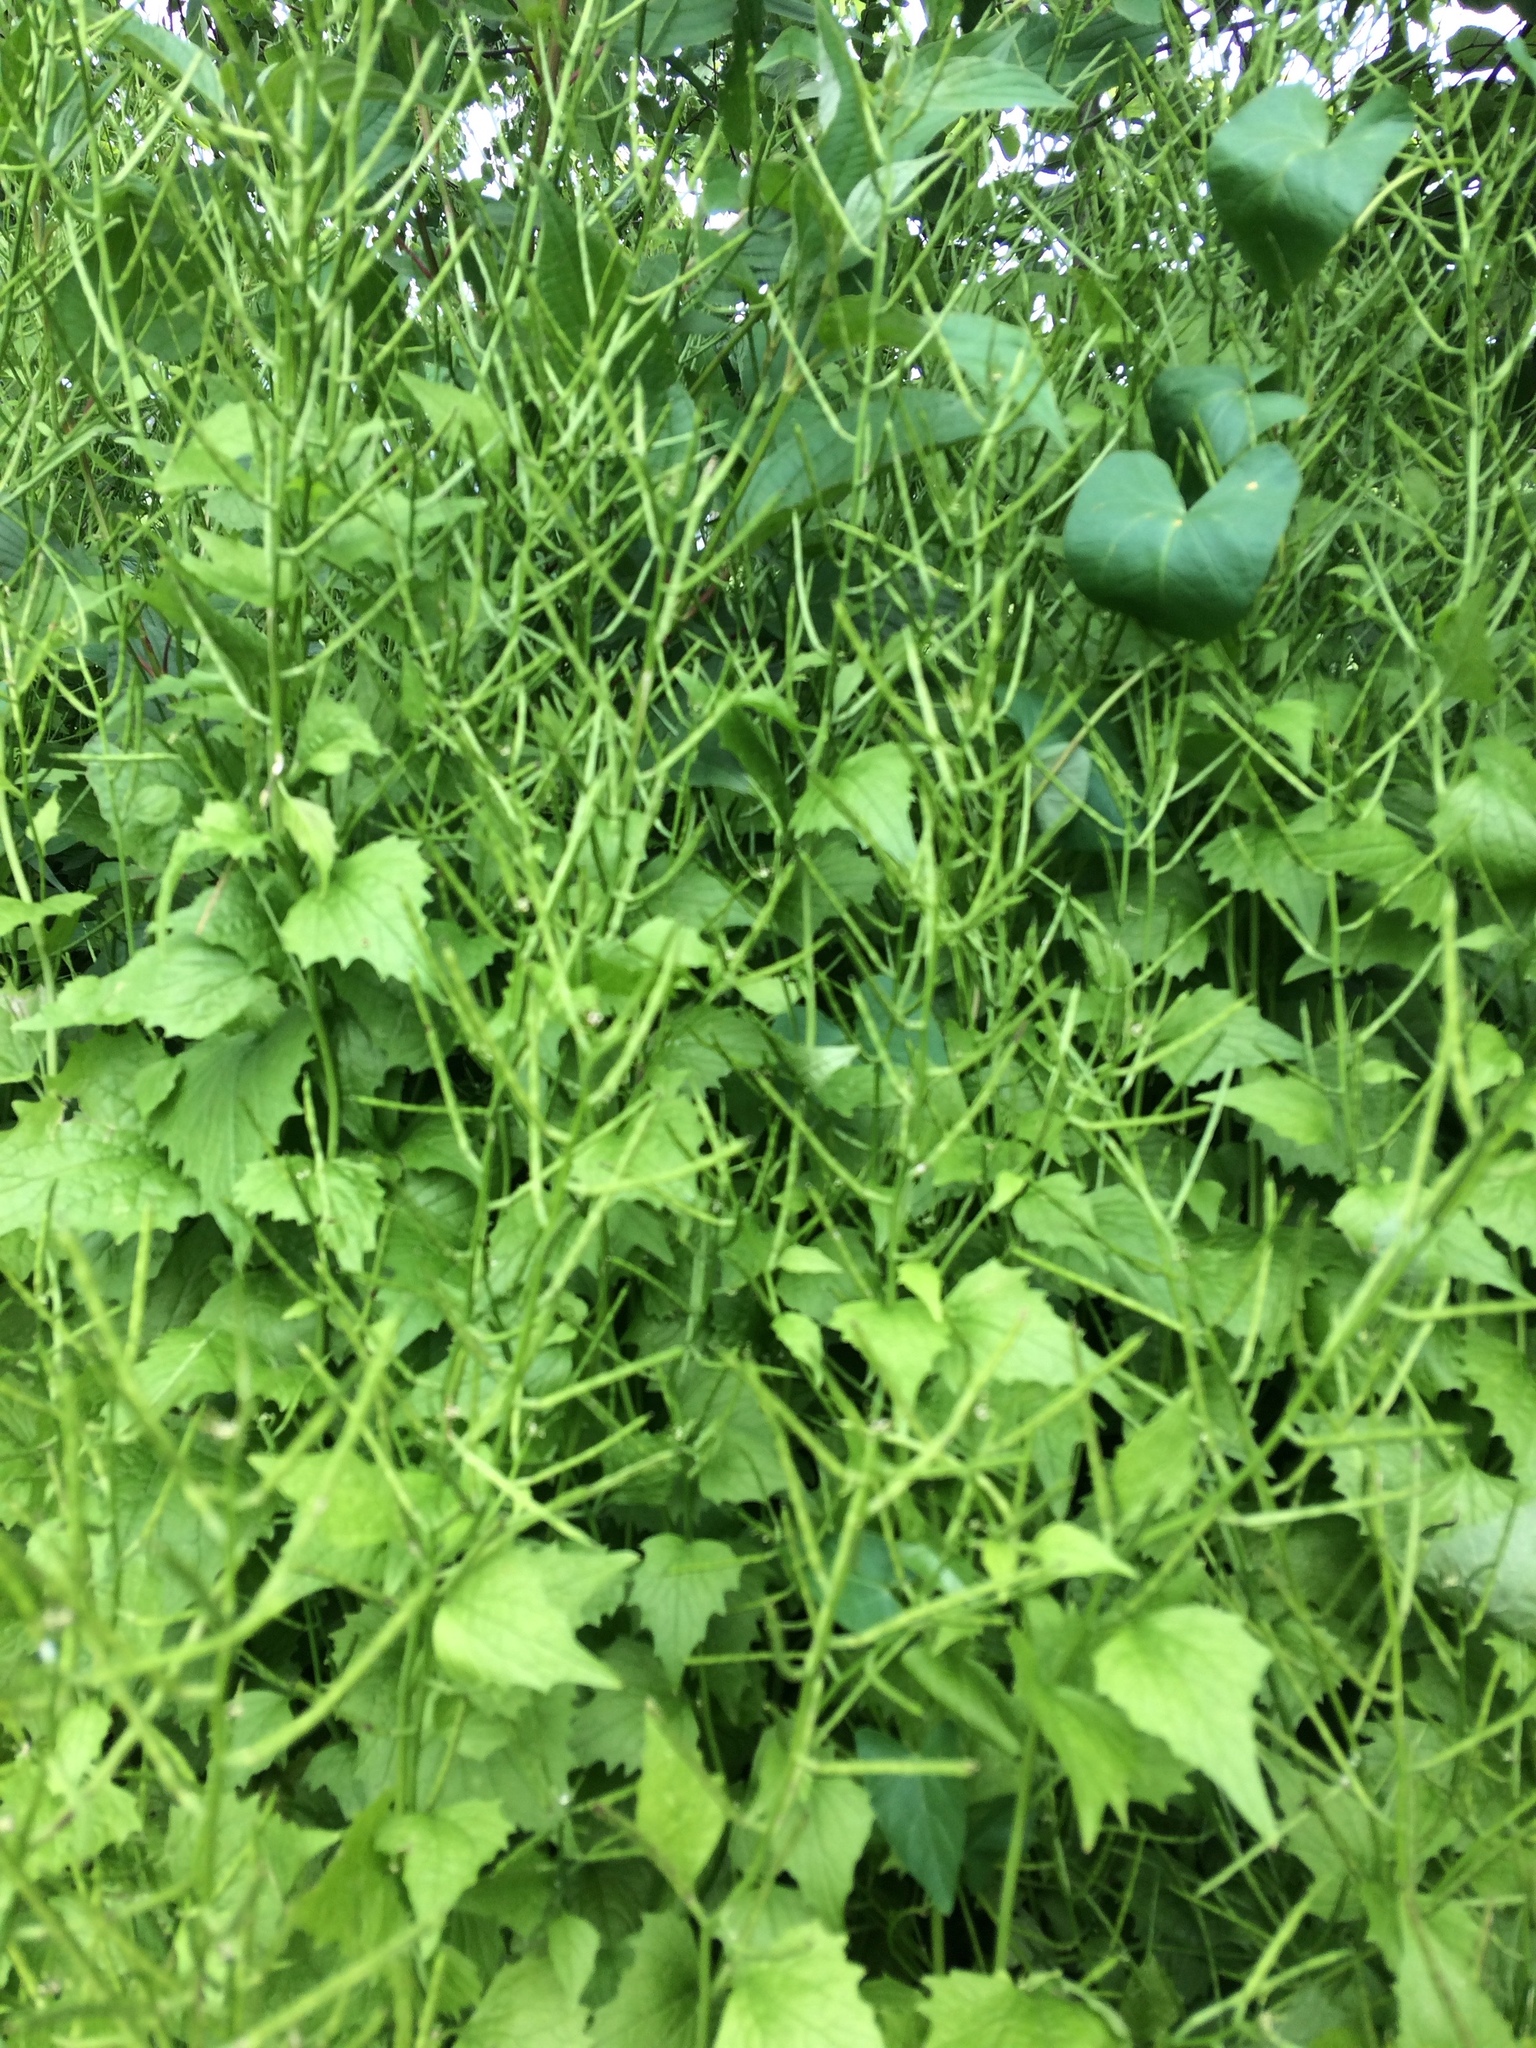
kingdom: Plantae
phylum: Tracheophyta
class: Magnoliopsida
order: Brassicales
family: Brassicaceae
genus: Alliaria
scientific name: Alliaria petiolata
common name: Garlic mustard
